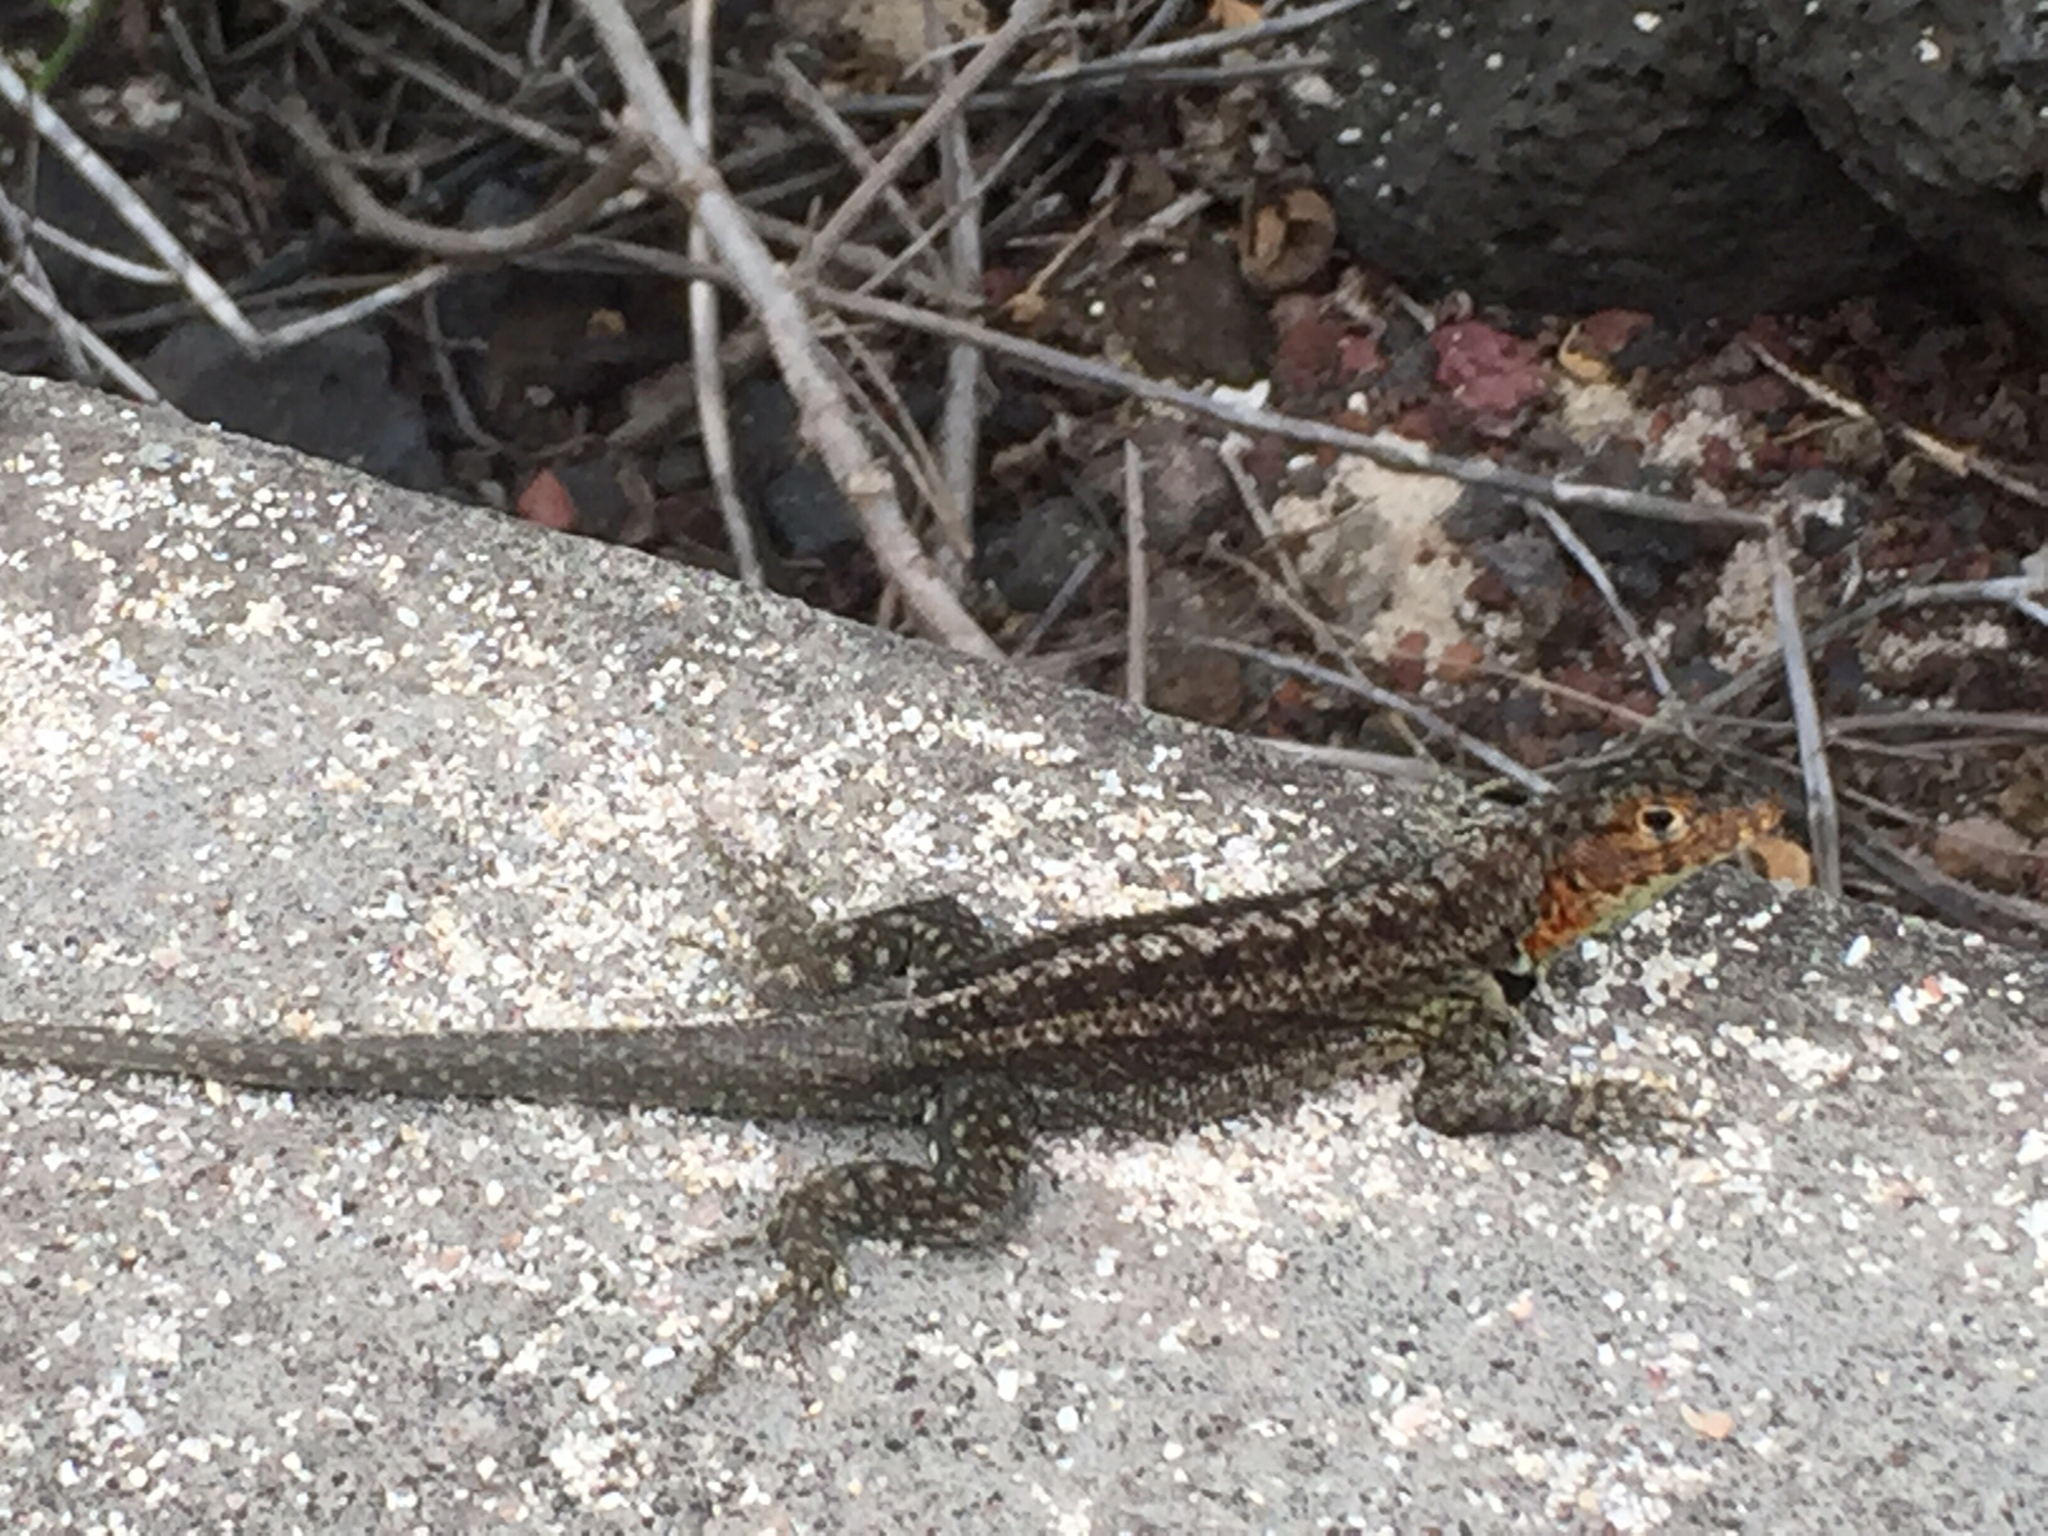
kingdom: Animalia
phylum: Chordata
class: Squamata
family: Tropiduridae
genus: Microlophus
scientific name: Microlophus indefatigabilis
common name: Galapagos lava lizard
